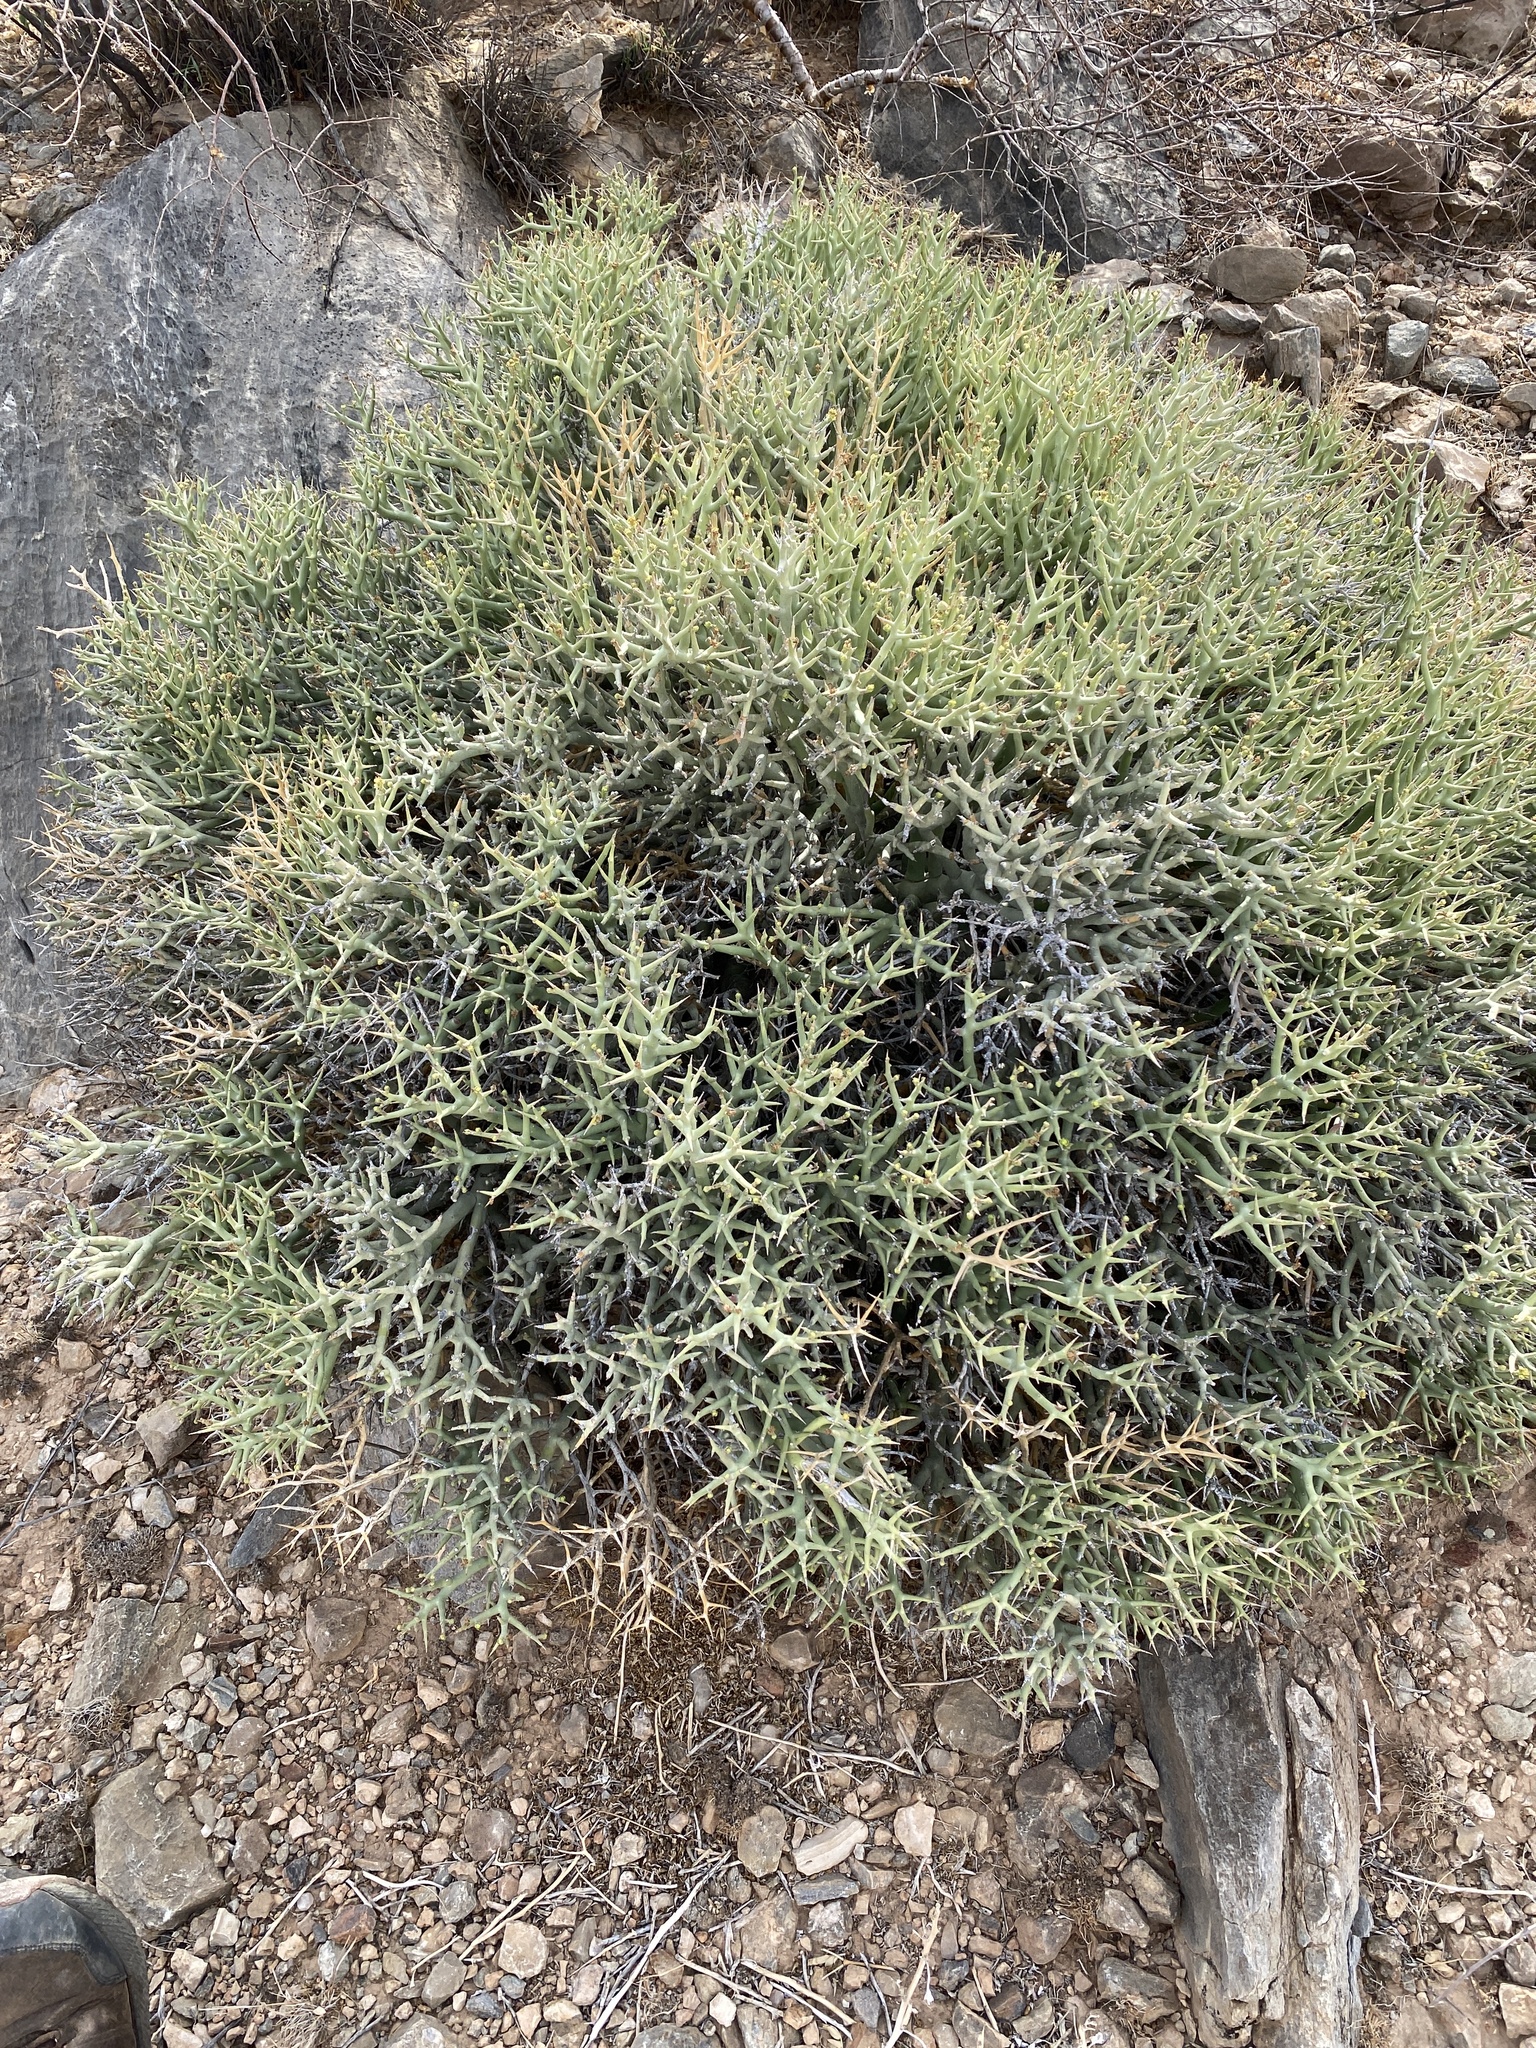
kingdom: Plantae
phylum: Tracheophyta
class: Magnoliopsida
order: Malpighiales
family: Euphorbiaceae
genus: Euphorbia
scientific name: Euphorbia lignosa
